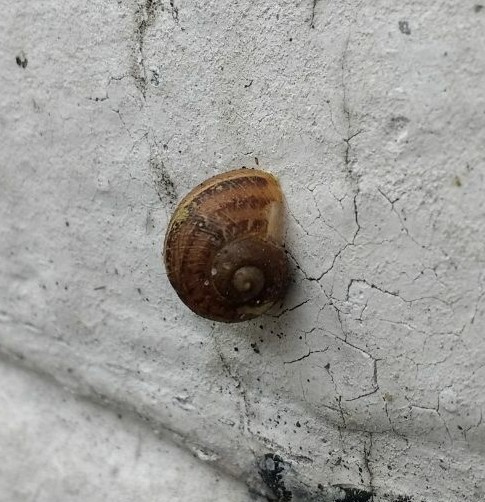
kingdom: Animalia
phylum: Mollusca
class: Gastropoda
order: Stylommatophora
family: Helicidae
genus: Cornu
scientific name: Cornu aspersum
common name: Brown garden snail
